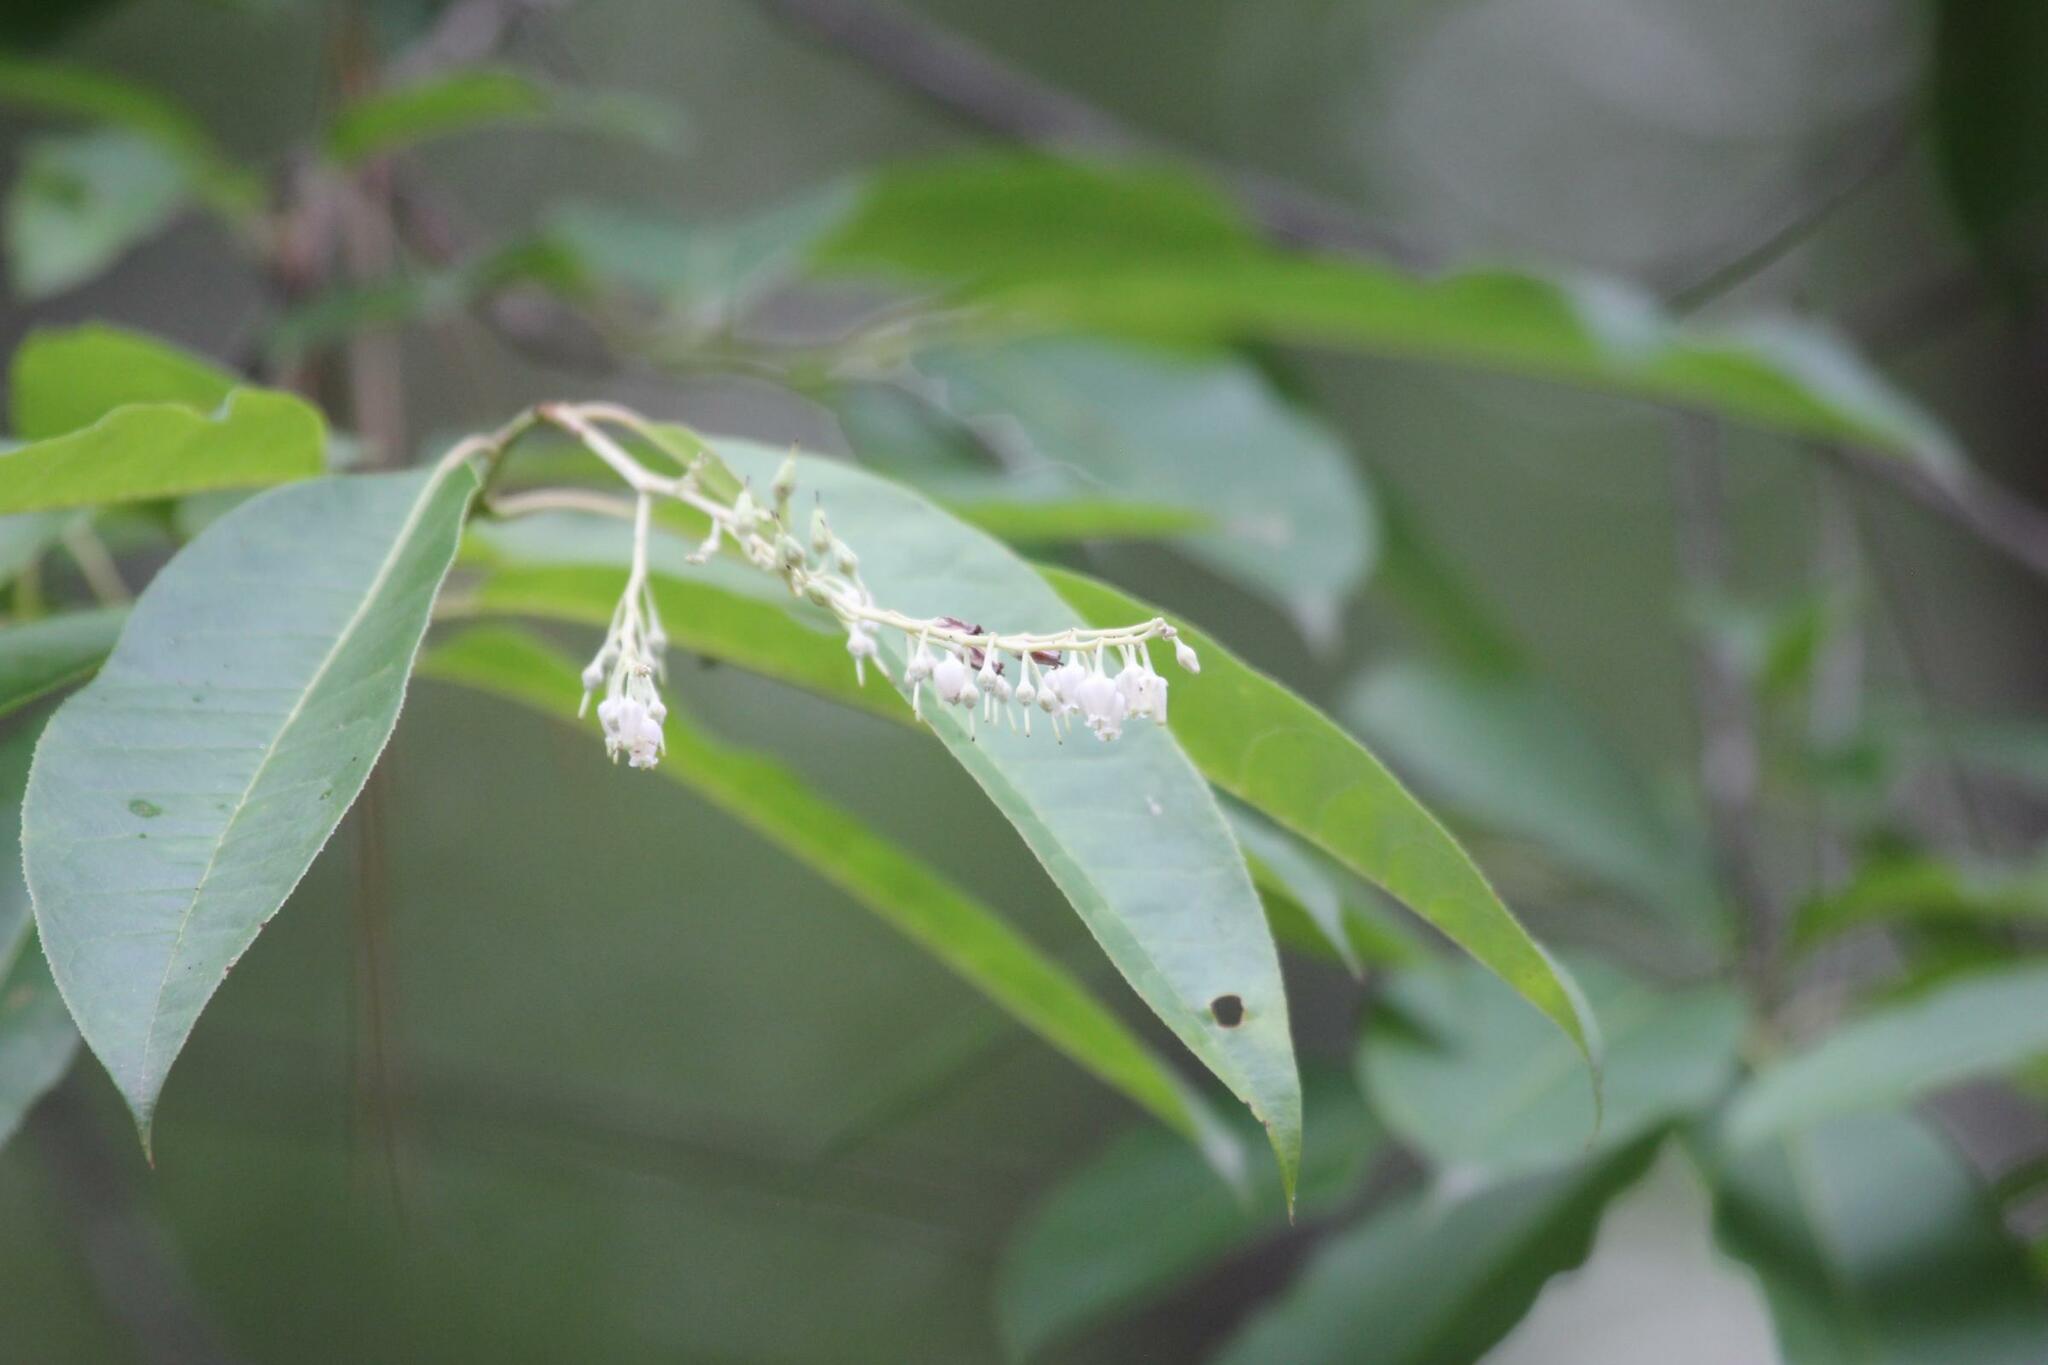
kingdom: Plantae
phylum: Tracheophyta
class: Magnoliopsida
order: Ericales
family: Ericaceae
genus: Oxydendrum
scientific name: Oxydendrum arboreum
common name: Sourwood
